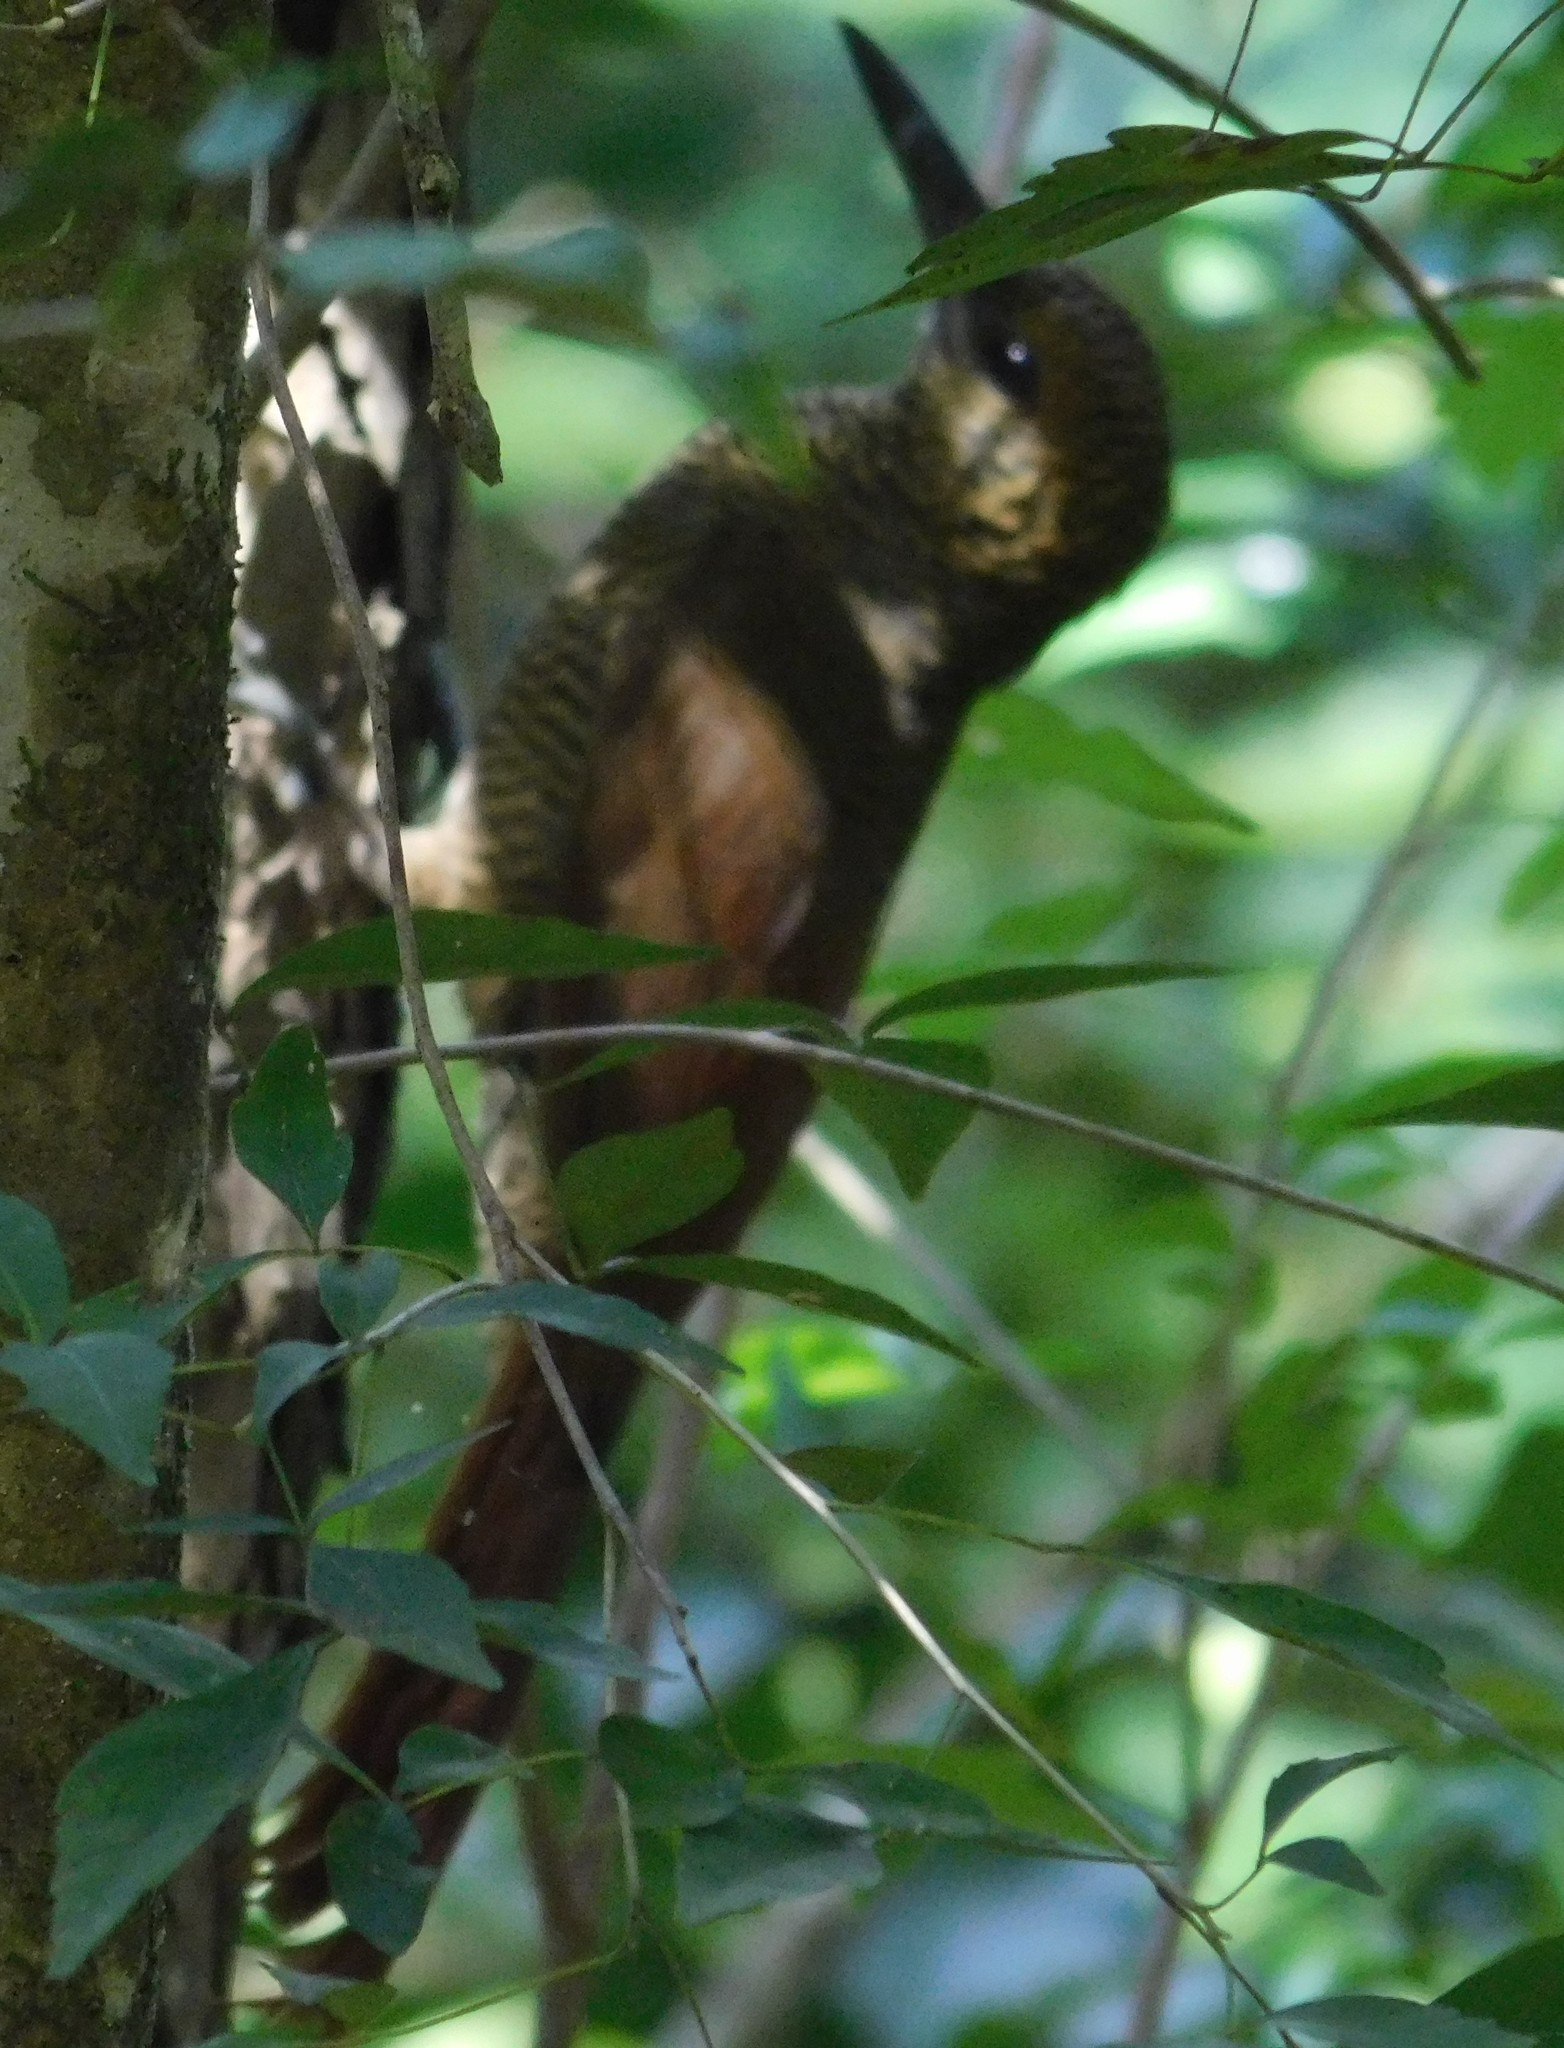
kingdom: Animalia
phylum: Chordata
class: Aves
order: Passeriformes
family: Furnariidae
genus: Dendrocolaptes
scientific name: Dendrocolaptes sanctithomae
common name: Northern barred-woodcreeper
